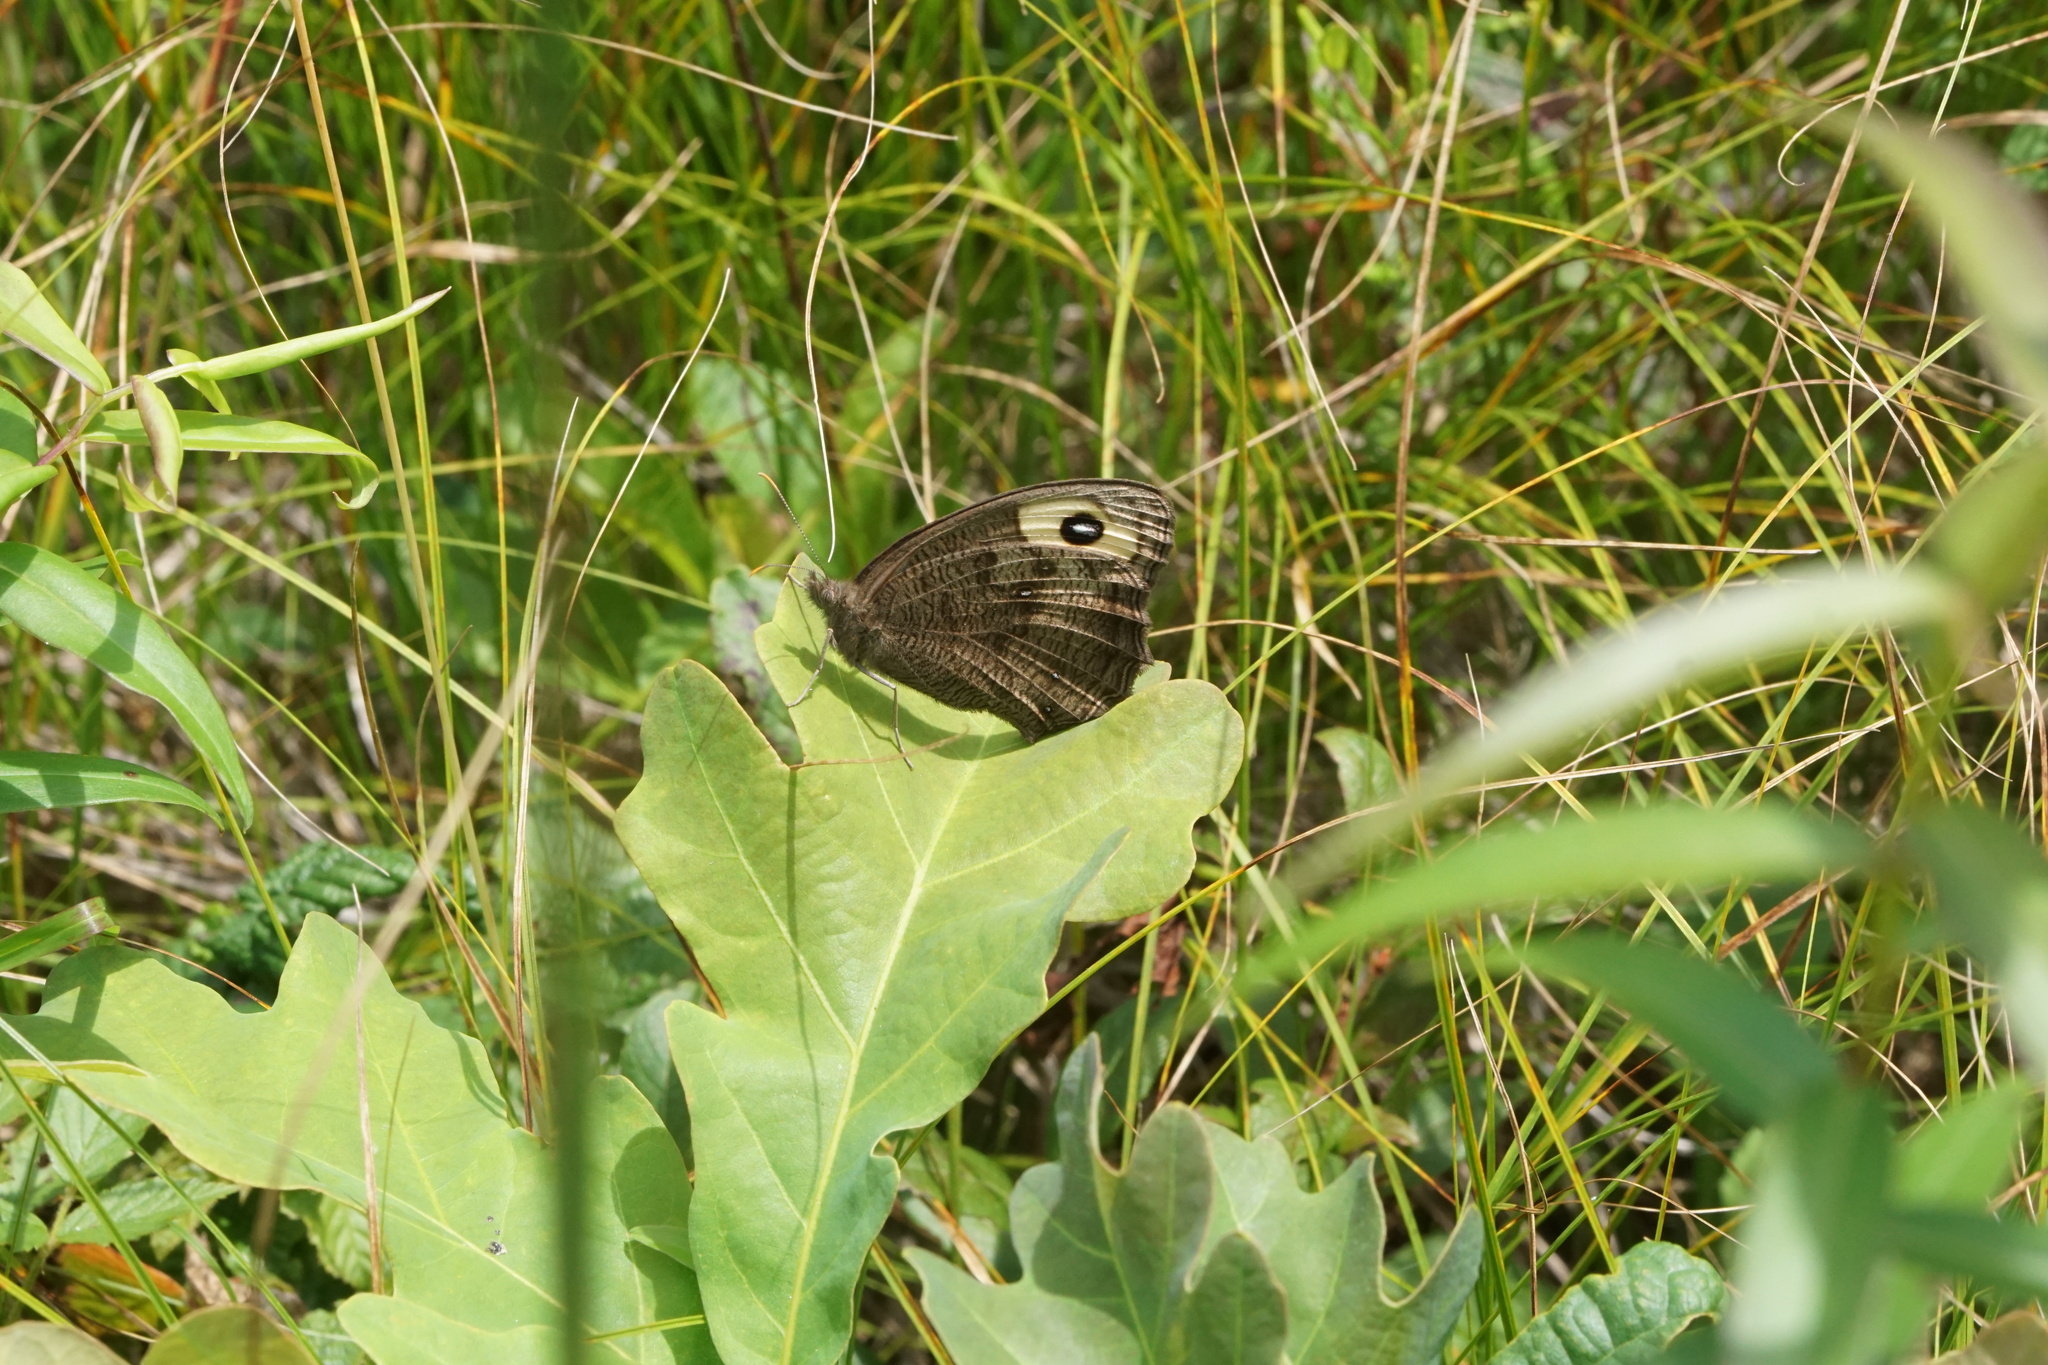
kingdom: Animalia
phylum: Arthropoda
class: Insecta
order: Lepidoptera
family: Nymphalidae
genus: Cercyonis
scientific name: Cercyonis pegala
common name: Common wood-nymph
